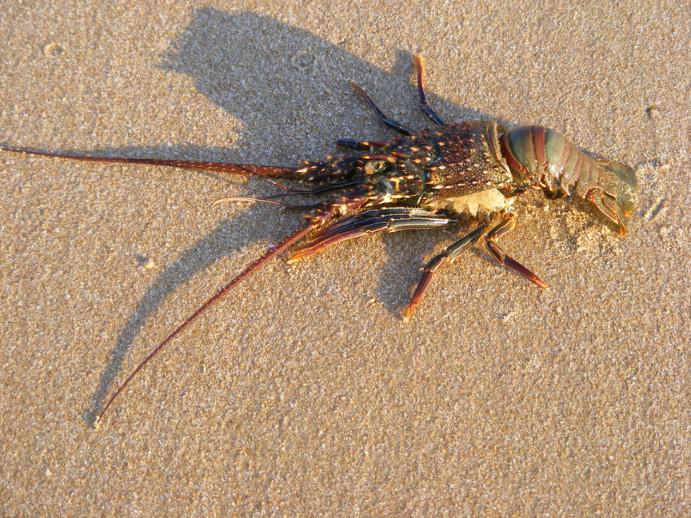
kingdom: Animalia
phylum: Arthropoda
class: Malacostraca
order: Decapoda
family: Palinuridae
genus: Panulirus
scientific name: Panulirus penicillatus
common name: Pronghorn spiny lobster
